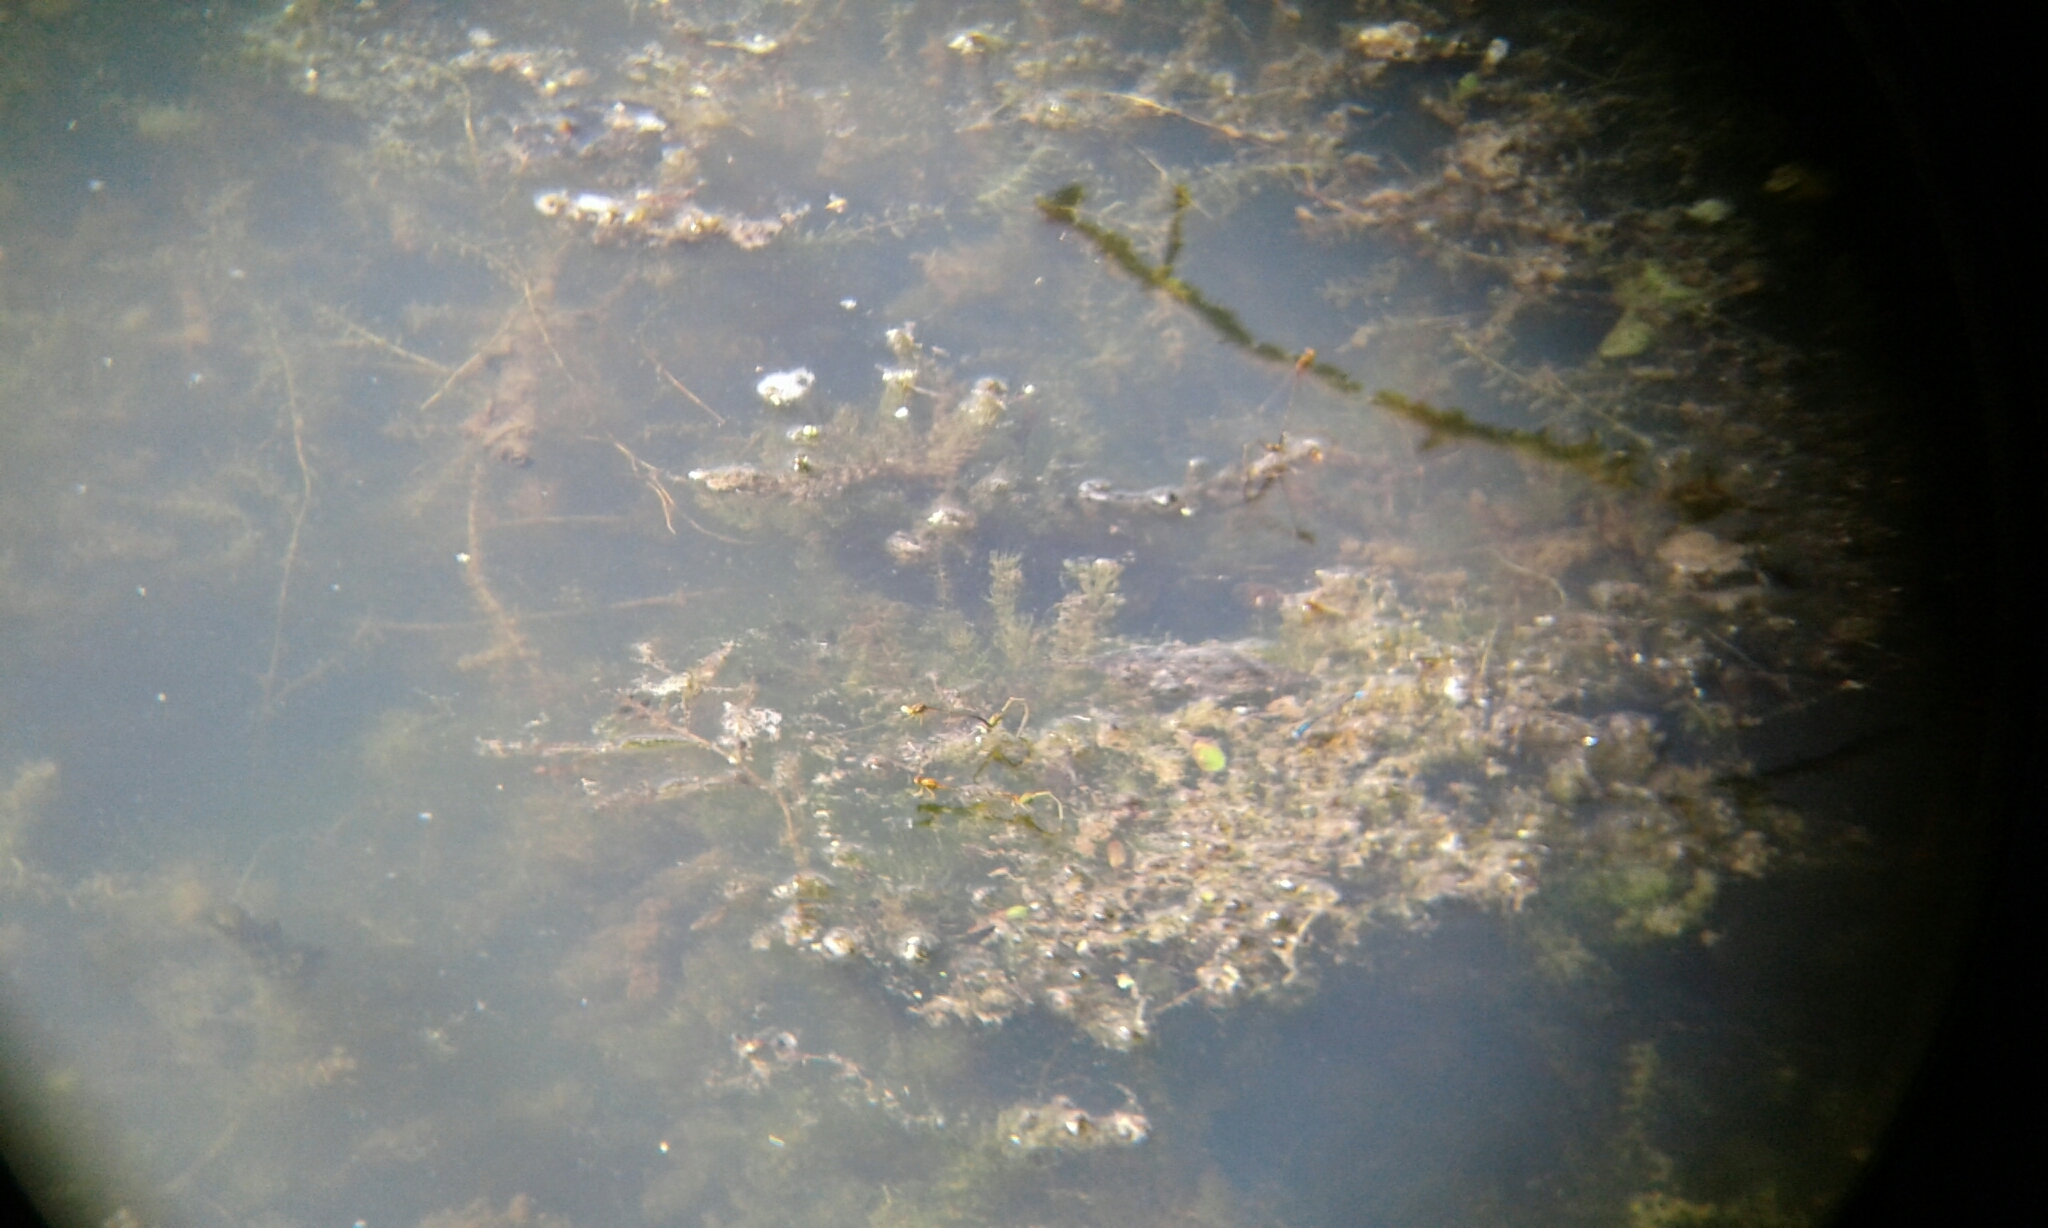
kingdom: Animalia
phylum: Arthropoda
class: Insecta
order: Odonata
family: Coenagrionidae
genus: Enallagma
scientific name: Enallagma signatum
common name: Orange bluet
